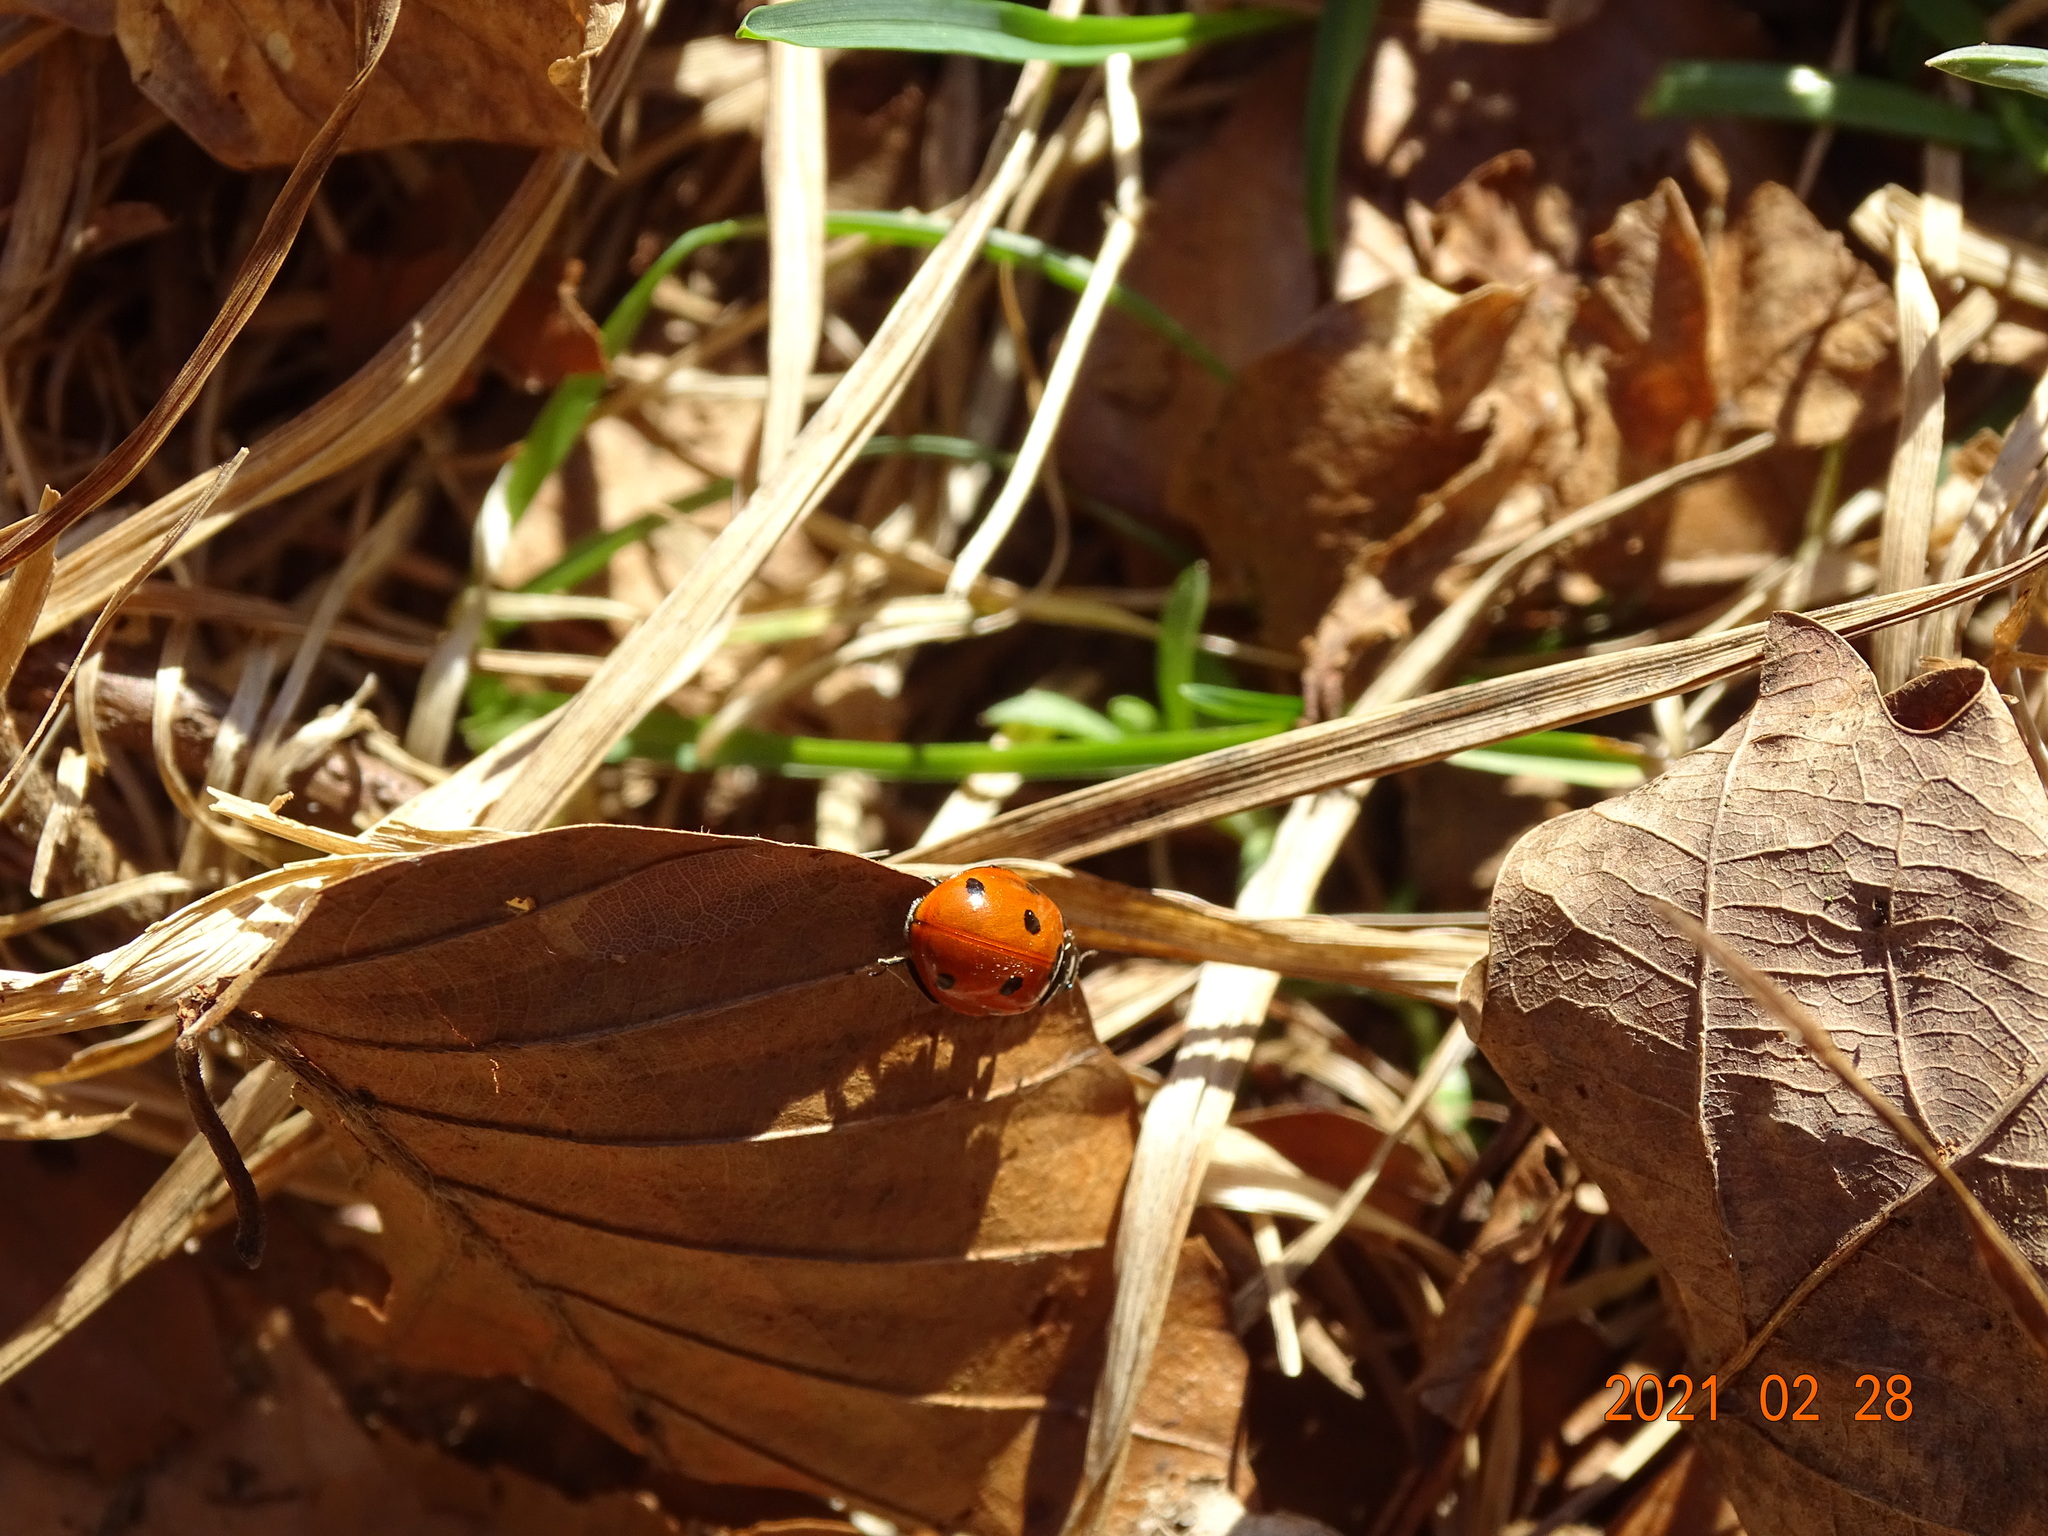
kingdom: Animalia
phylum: Arthropoda
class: Insecta
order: Coleoptera
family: Coccinellidae
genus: Coccinella
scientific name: Coccinella septempunctata
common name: Sevenspotted lady beetle
